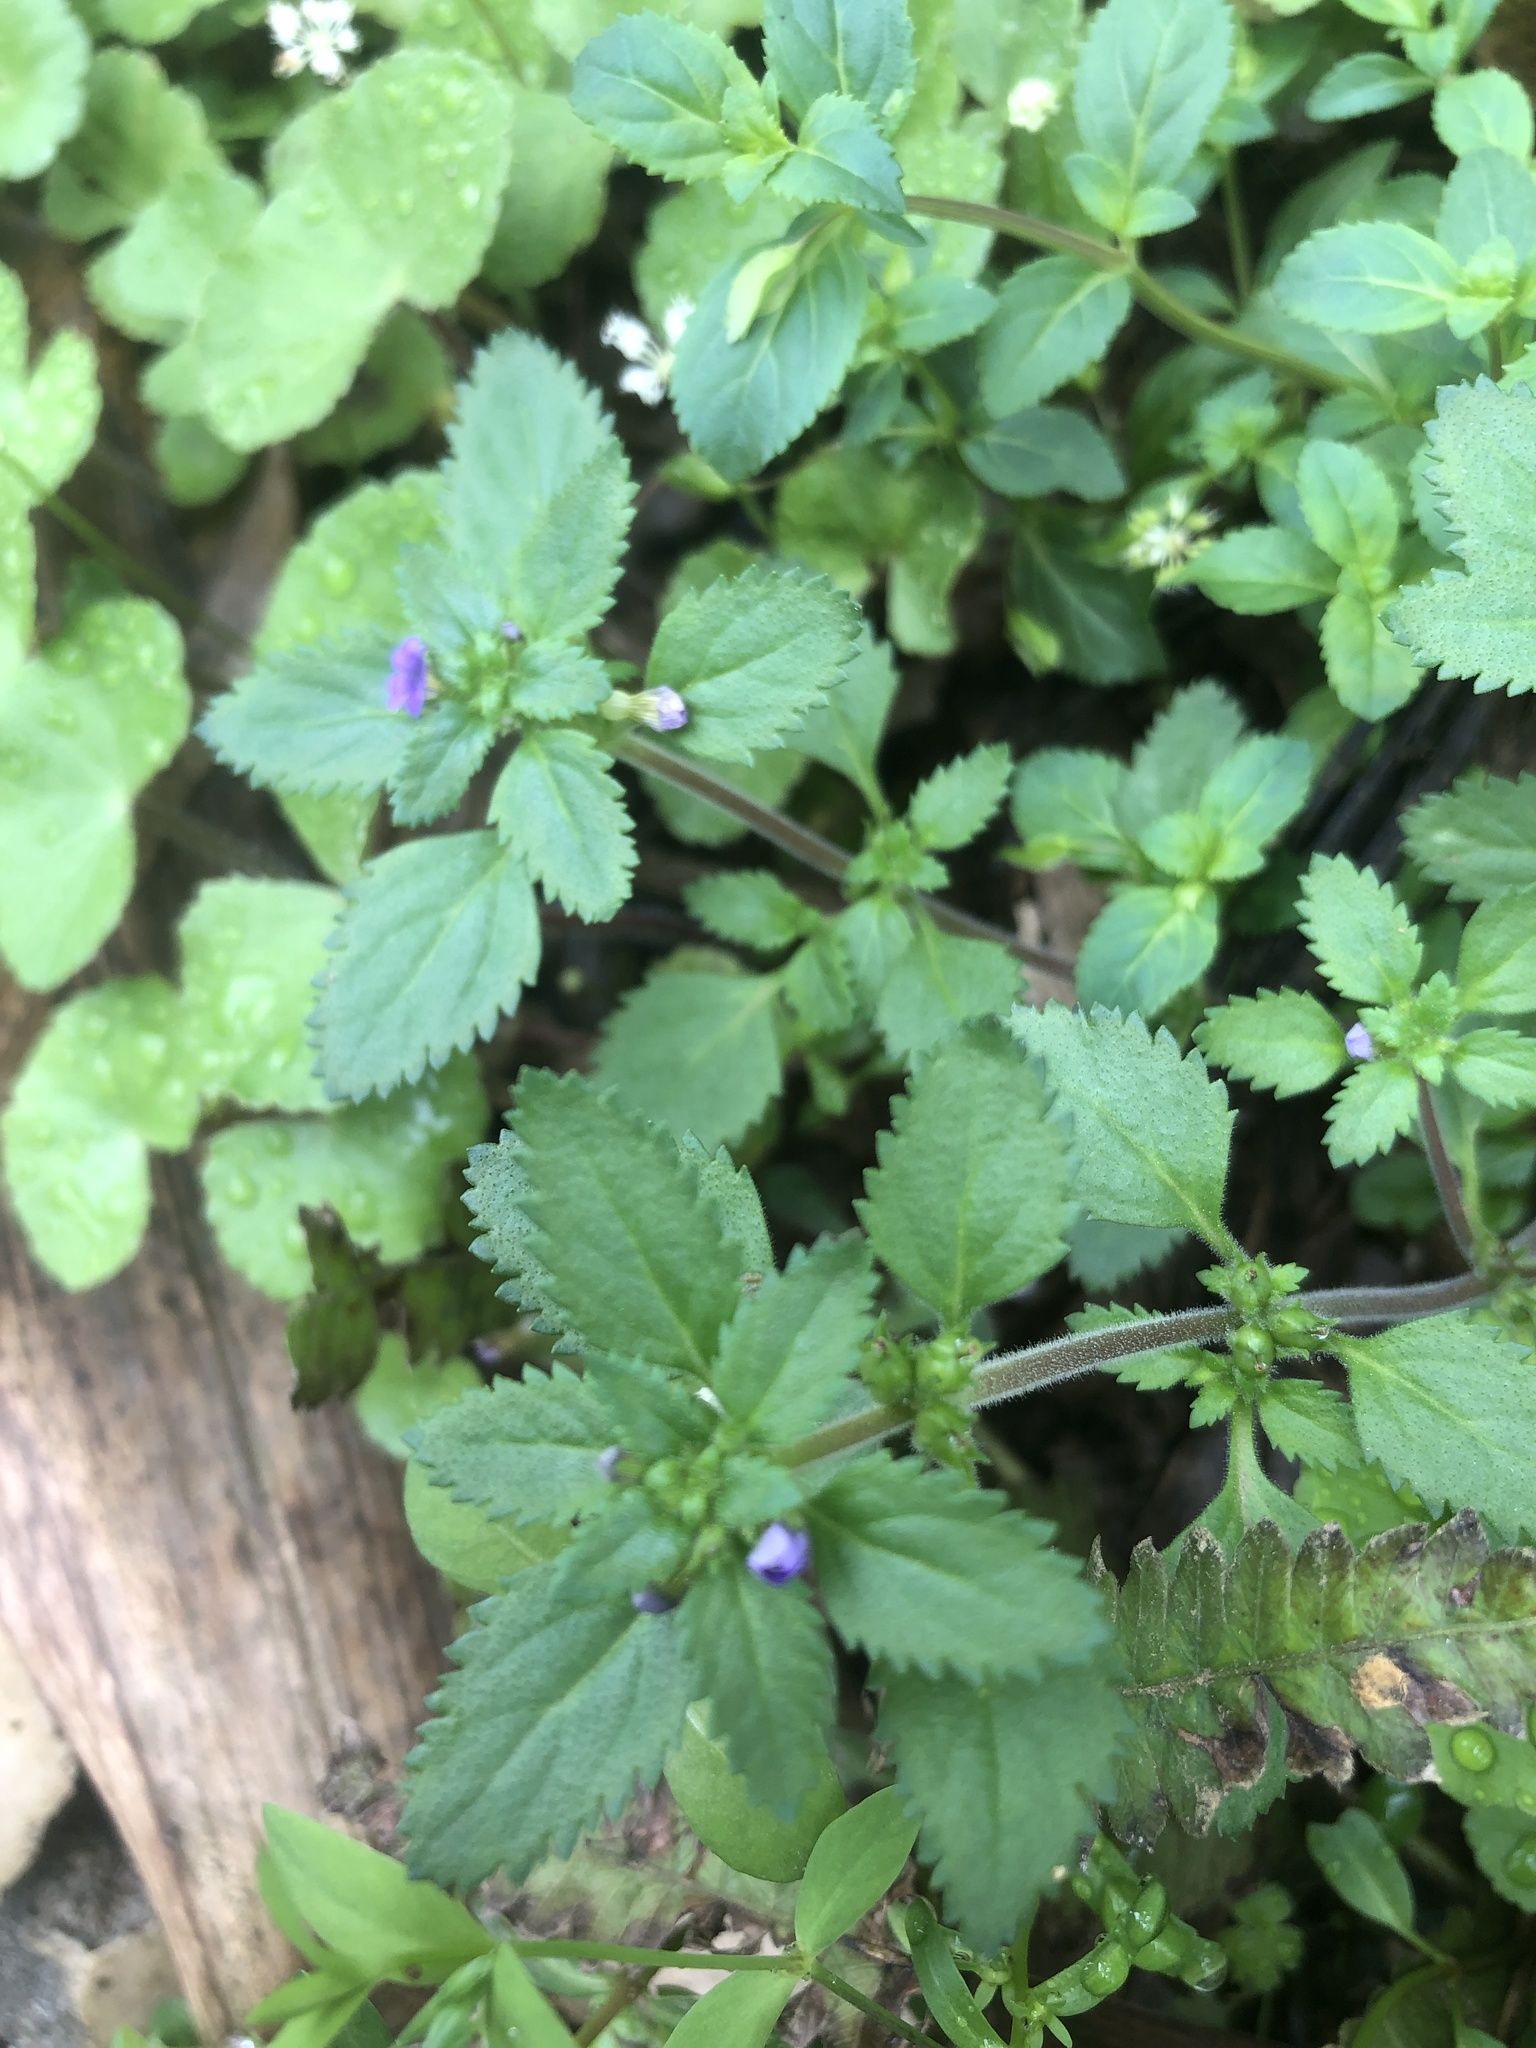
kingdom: Plantae
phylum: Tracheophyta
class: Magnoliopsida
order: Lamiales
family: Plantaginaceae
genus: Stemodia
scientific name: Stemodia verticillata
